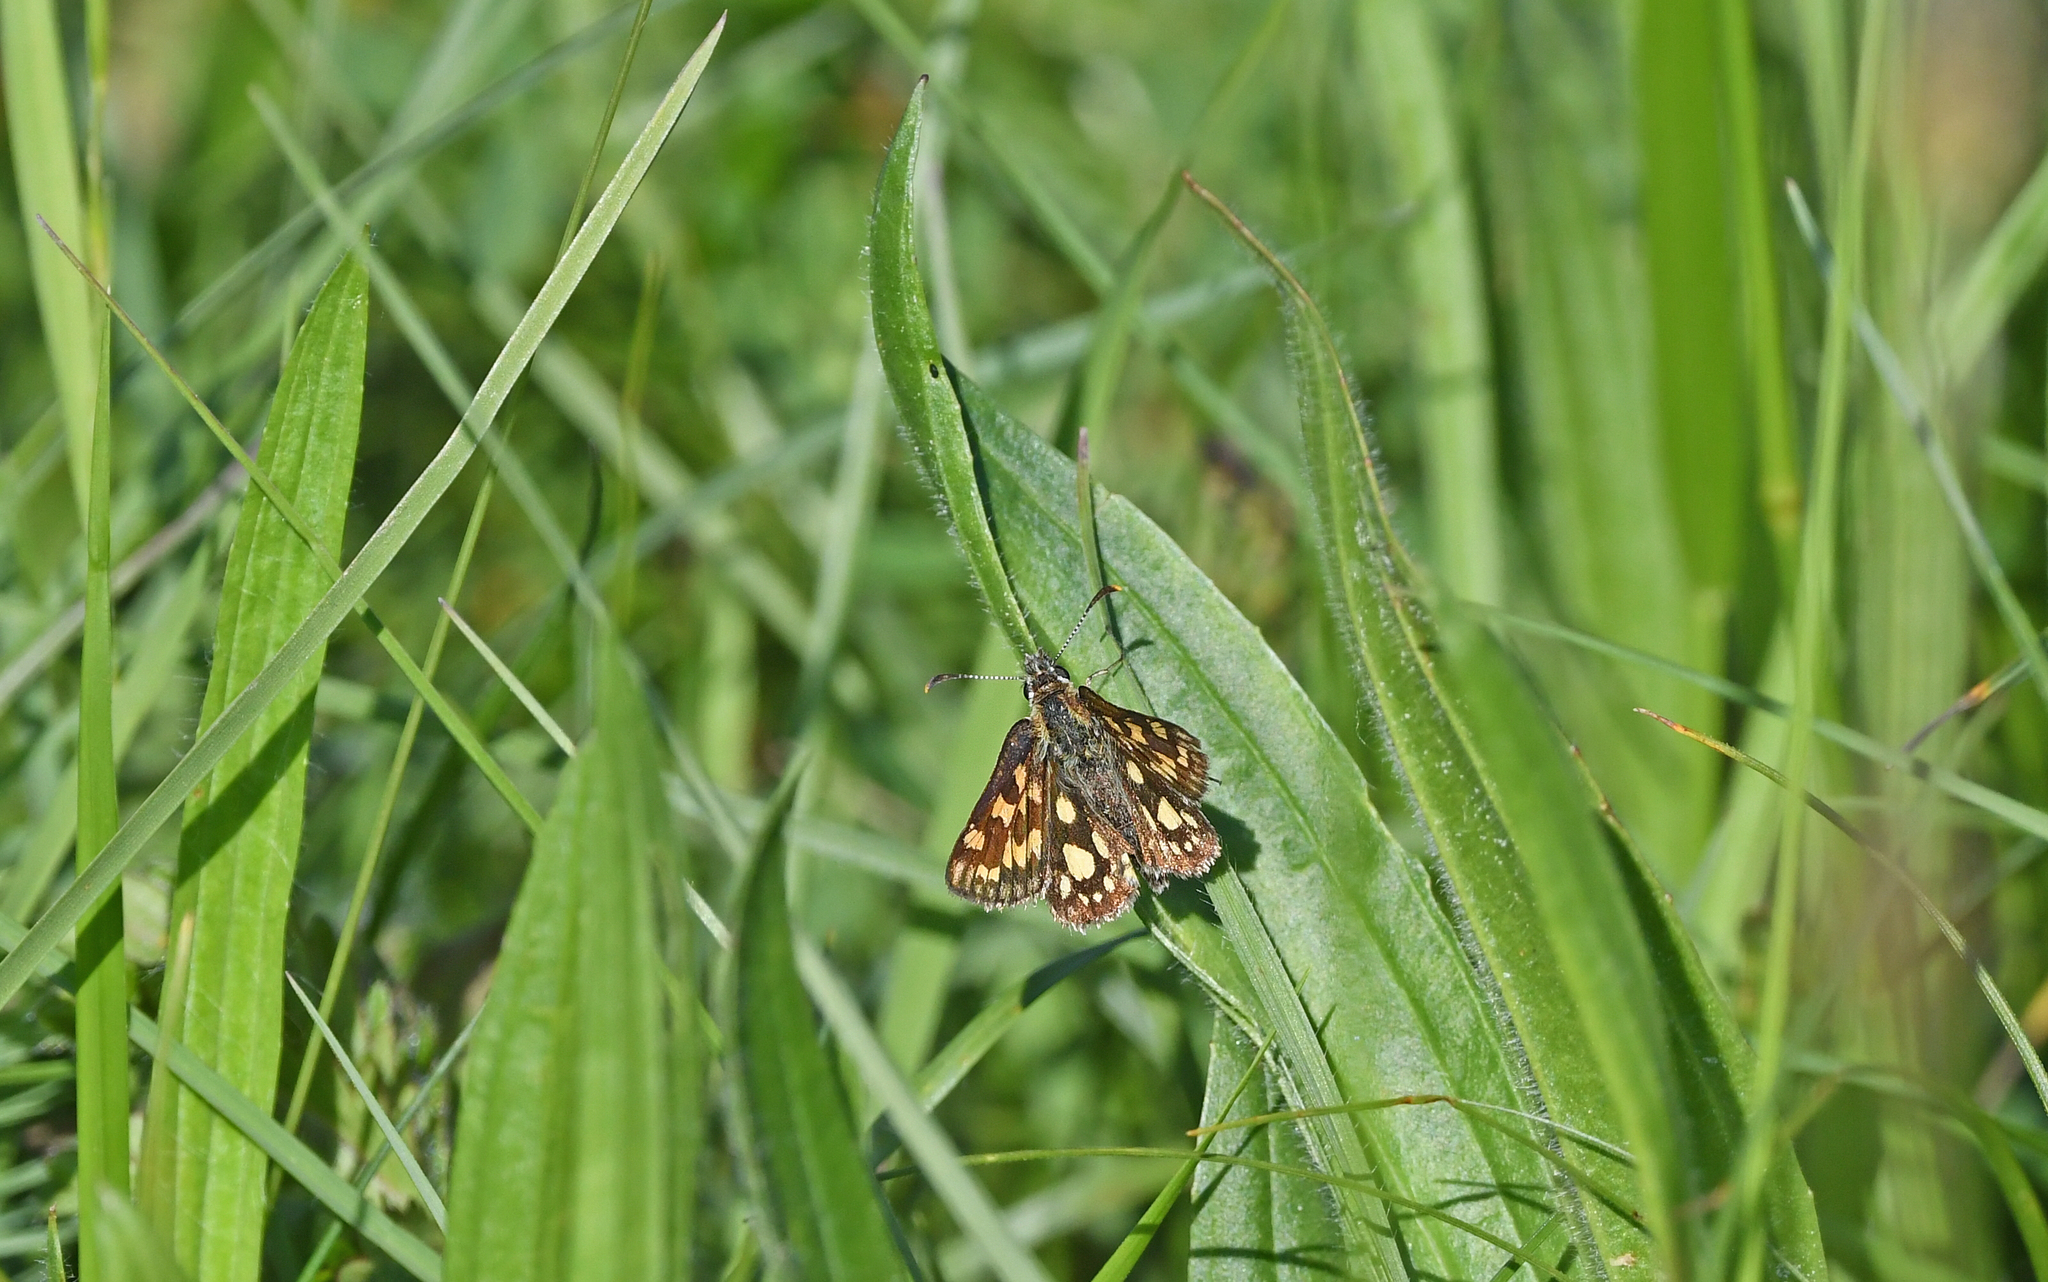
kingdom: Animalia
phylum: Arthropoda
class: Insecta
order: Lepidoptera
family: Hesperiidae
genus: Carterocephalus
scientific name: Carterocephalus palaemon
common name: Chequered skipper
